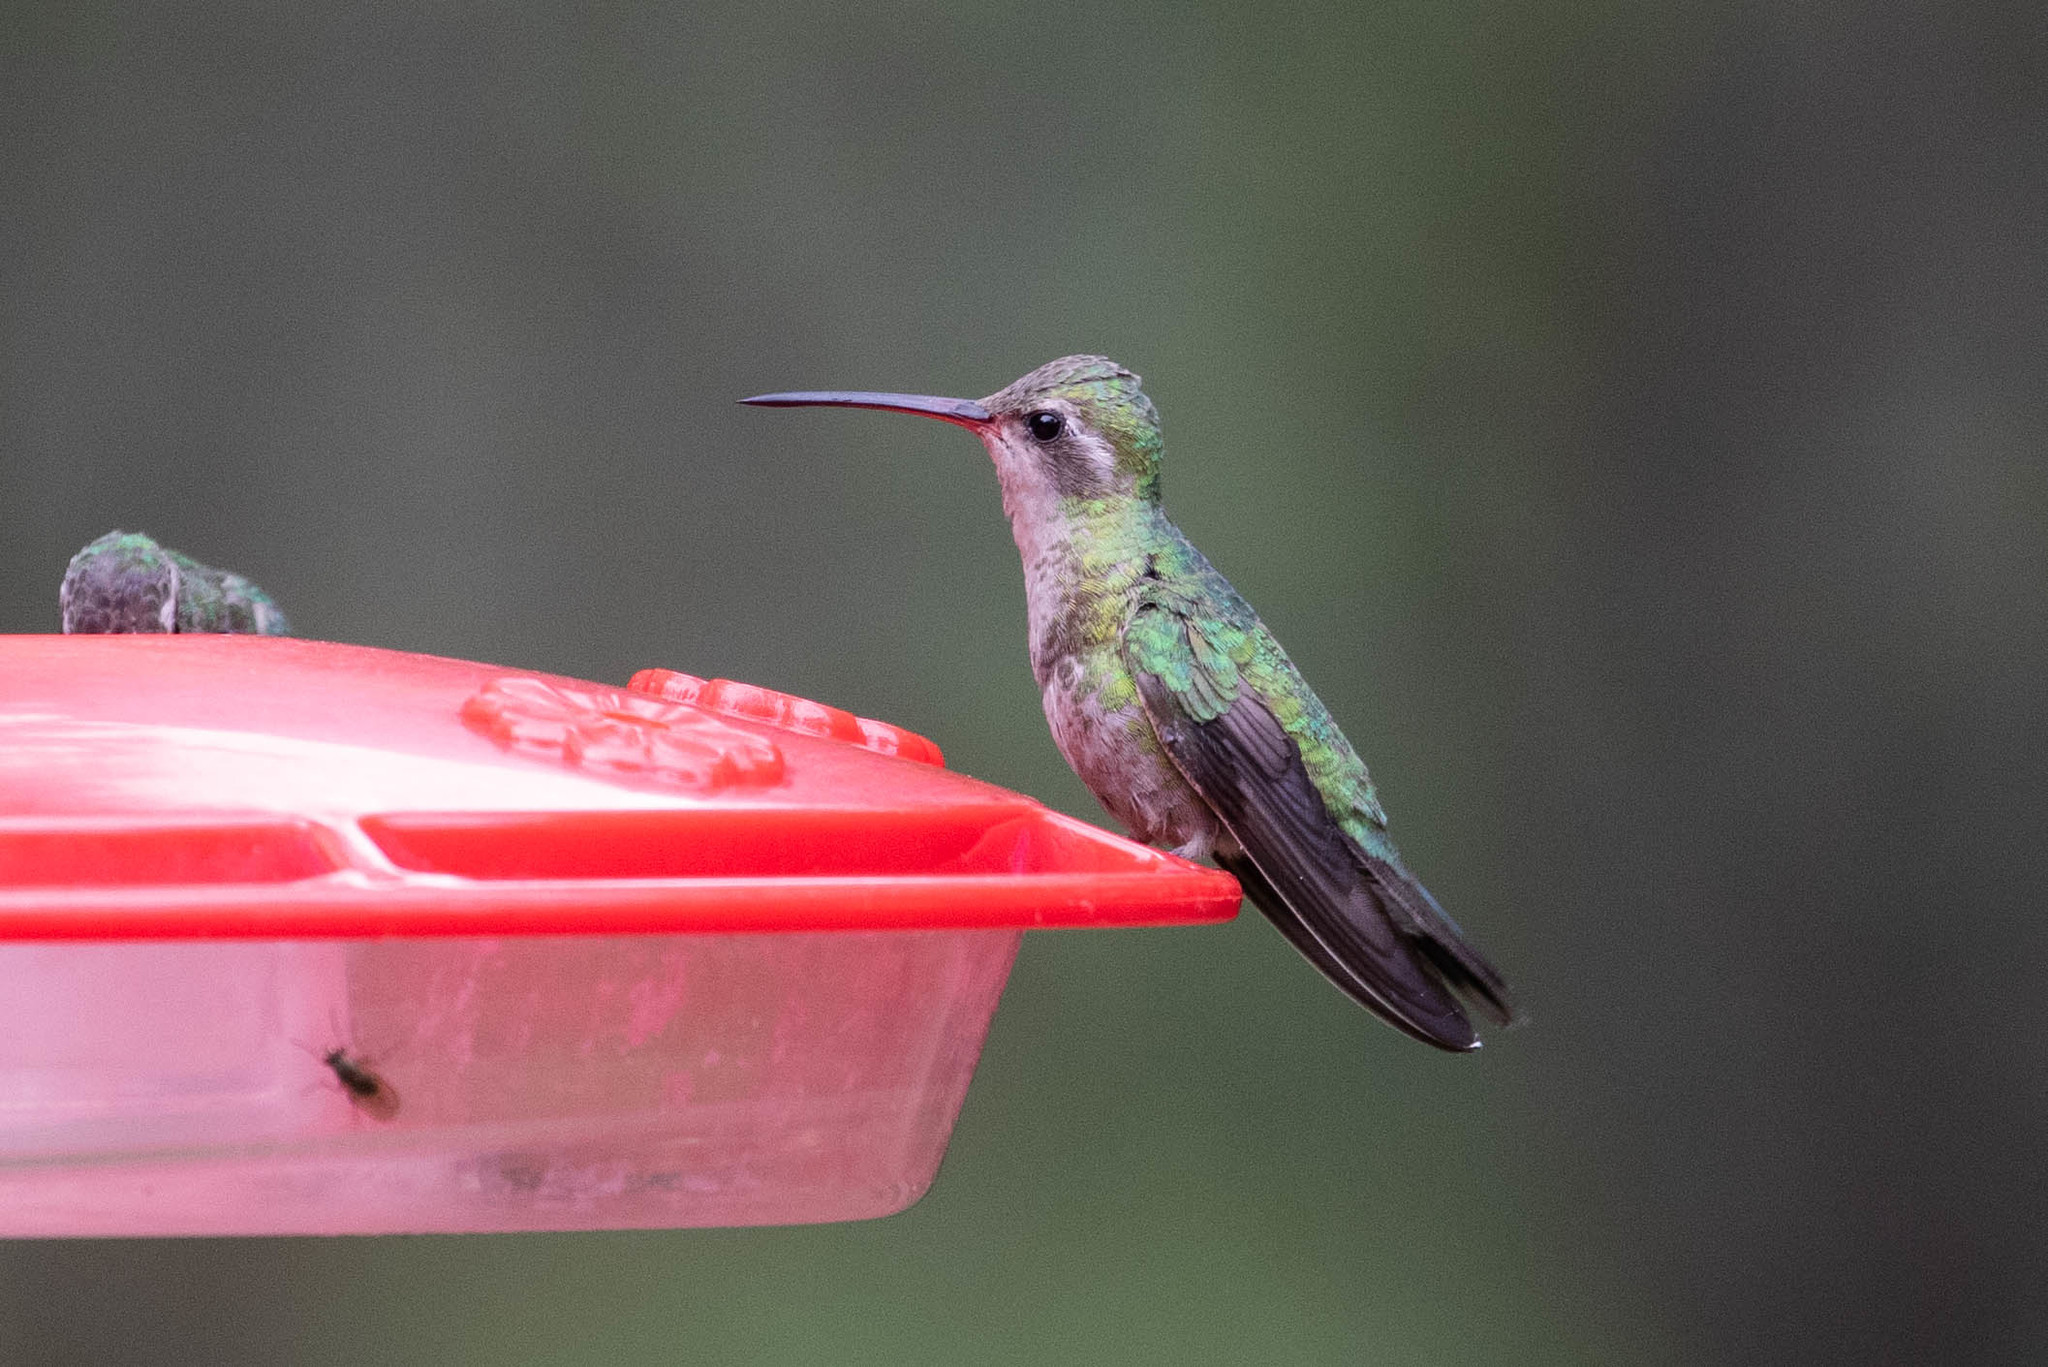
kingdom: Animalia
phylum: Chordata
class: Aves
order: Apodiformes
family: Trochilidae
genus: Cynanthus
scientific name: Cynanthus latirostris
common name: Broad-billed hummingbird
